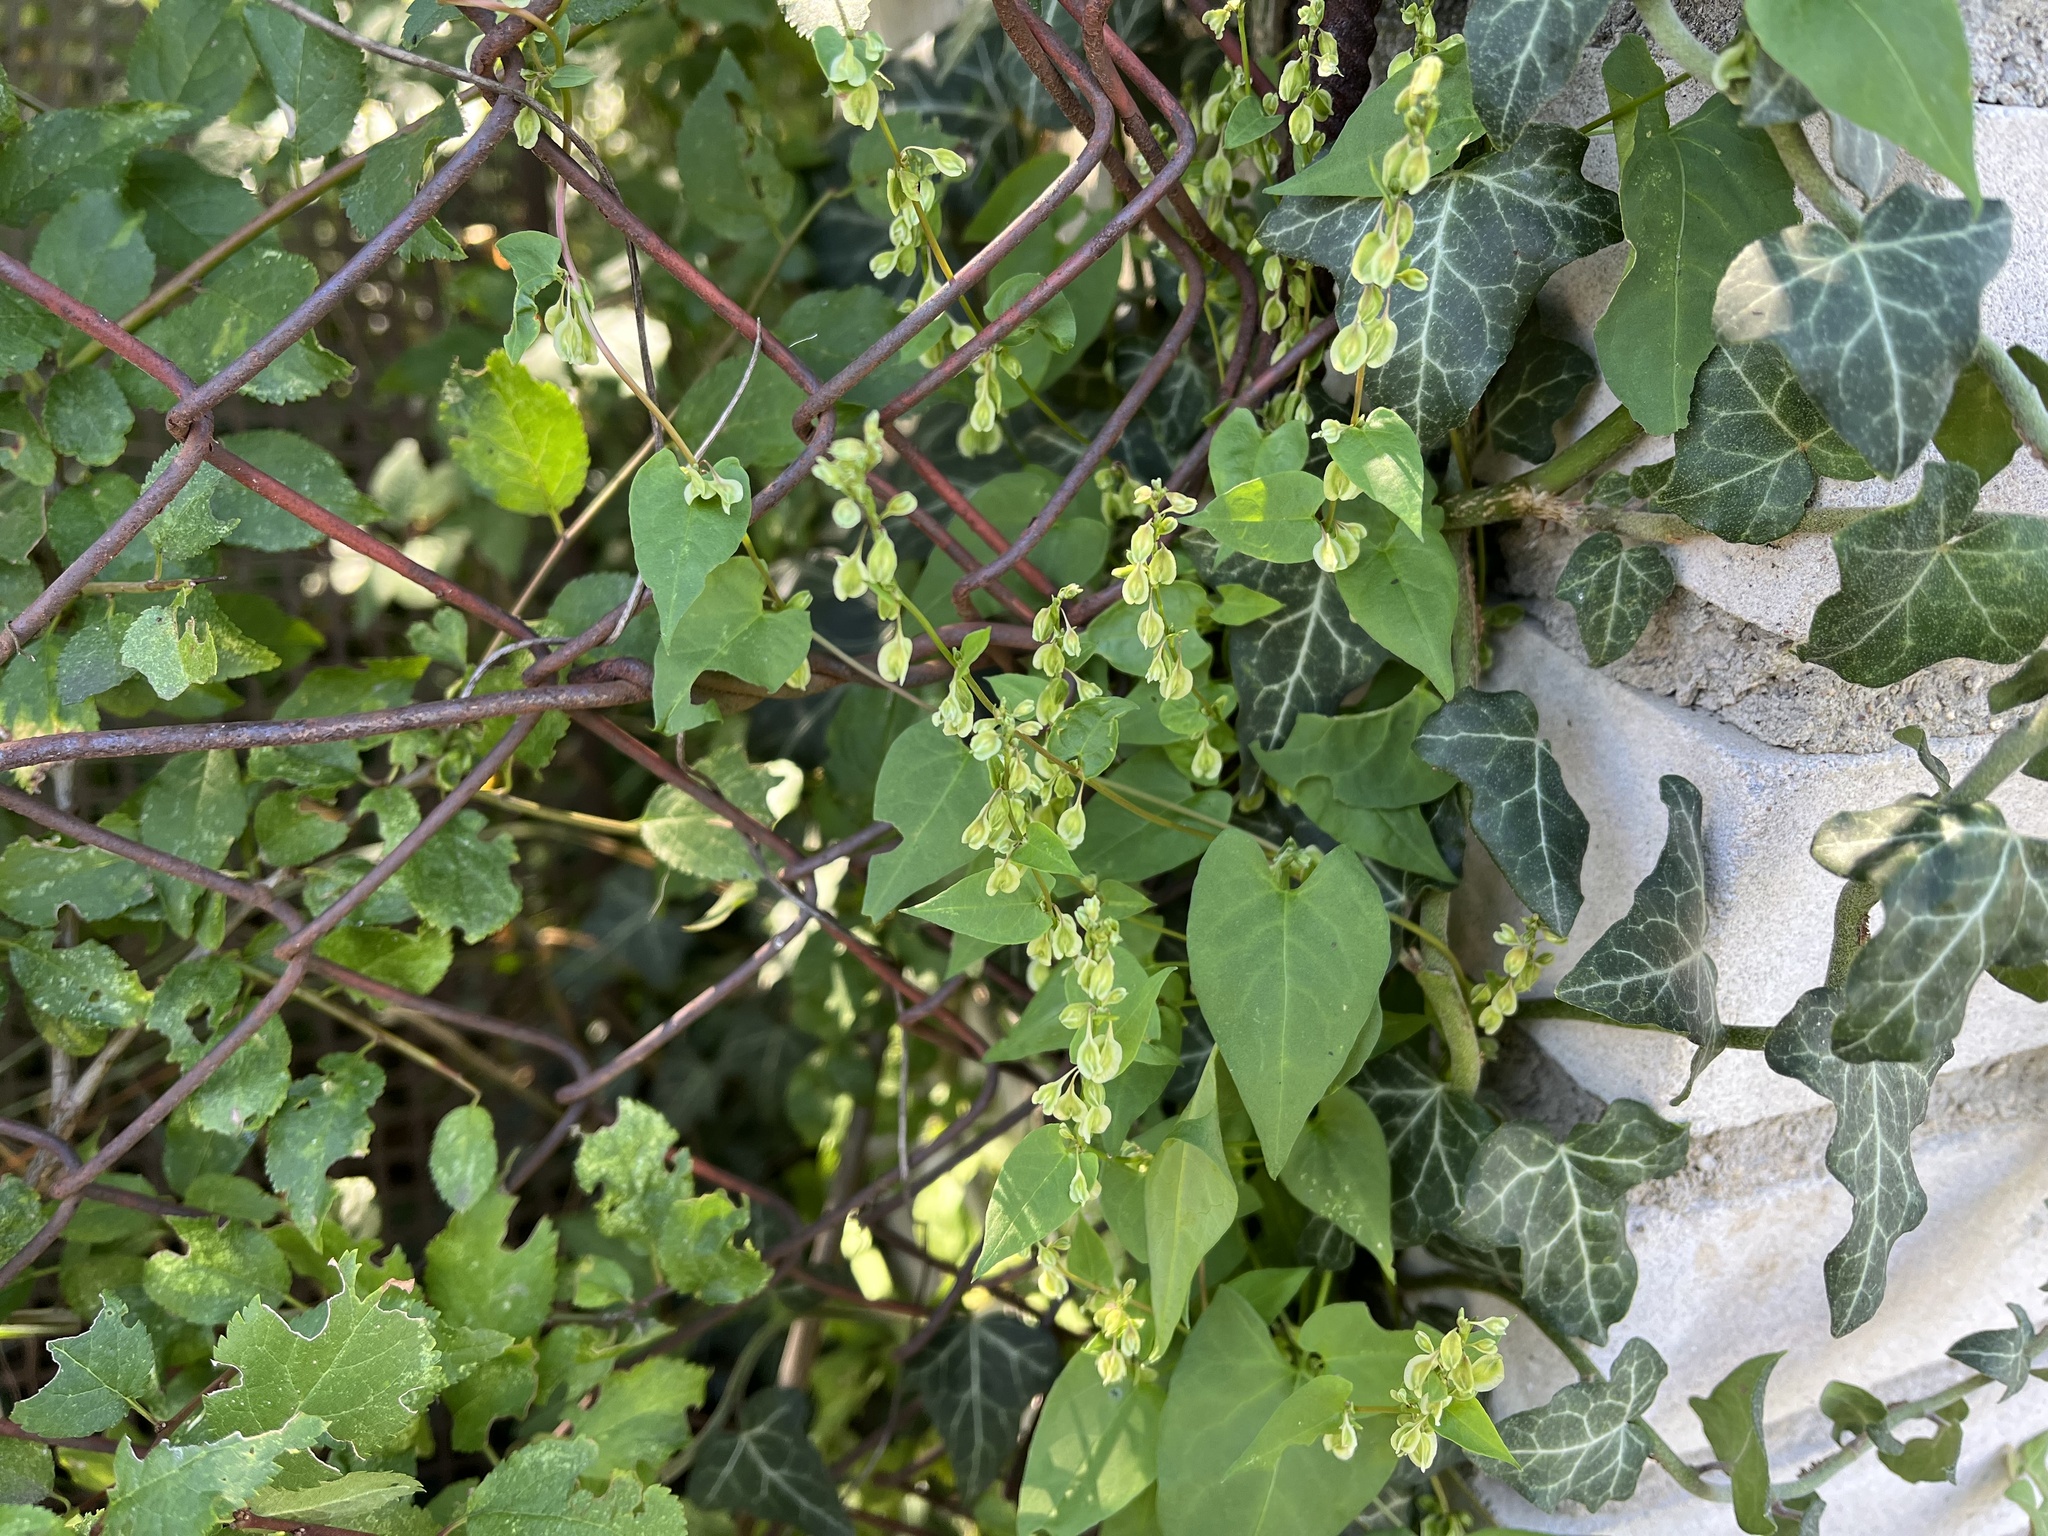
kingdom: Plantae
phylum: Tracheophyta
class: Magnoliopsida
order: Caryophyllales
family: Polygonaceae
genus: Fallopia
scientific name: Fallopia dumetorum
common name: Copse-bindweed
